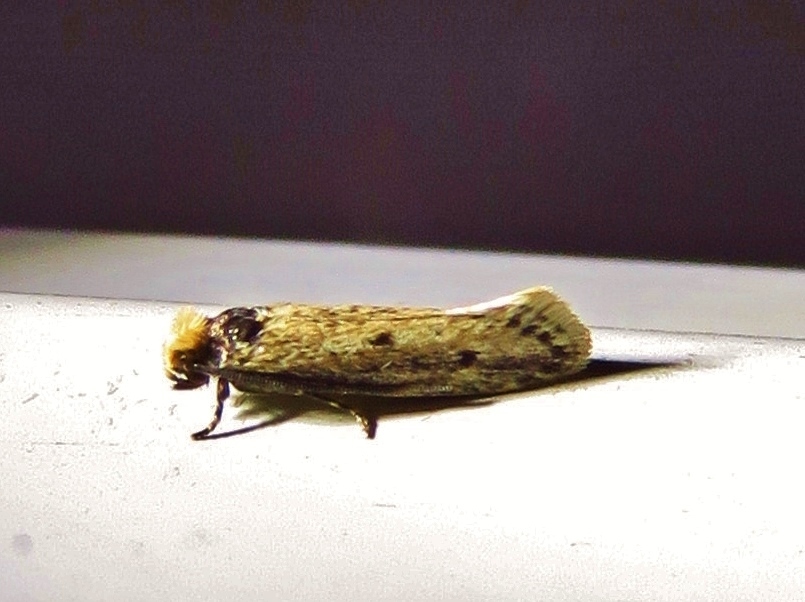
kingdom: Animalia
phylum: Arthropoda
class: Insecta
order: Lepidoptera
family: Tineidae
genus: Tinea
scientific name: Tinea apicimaculella
